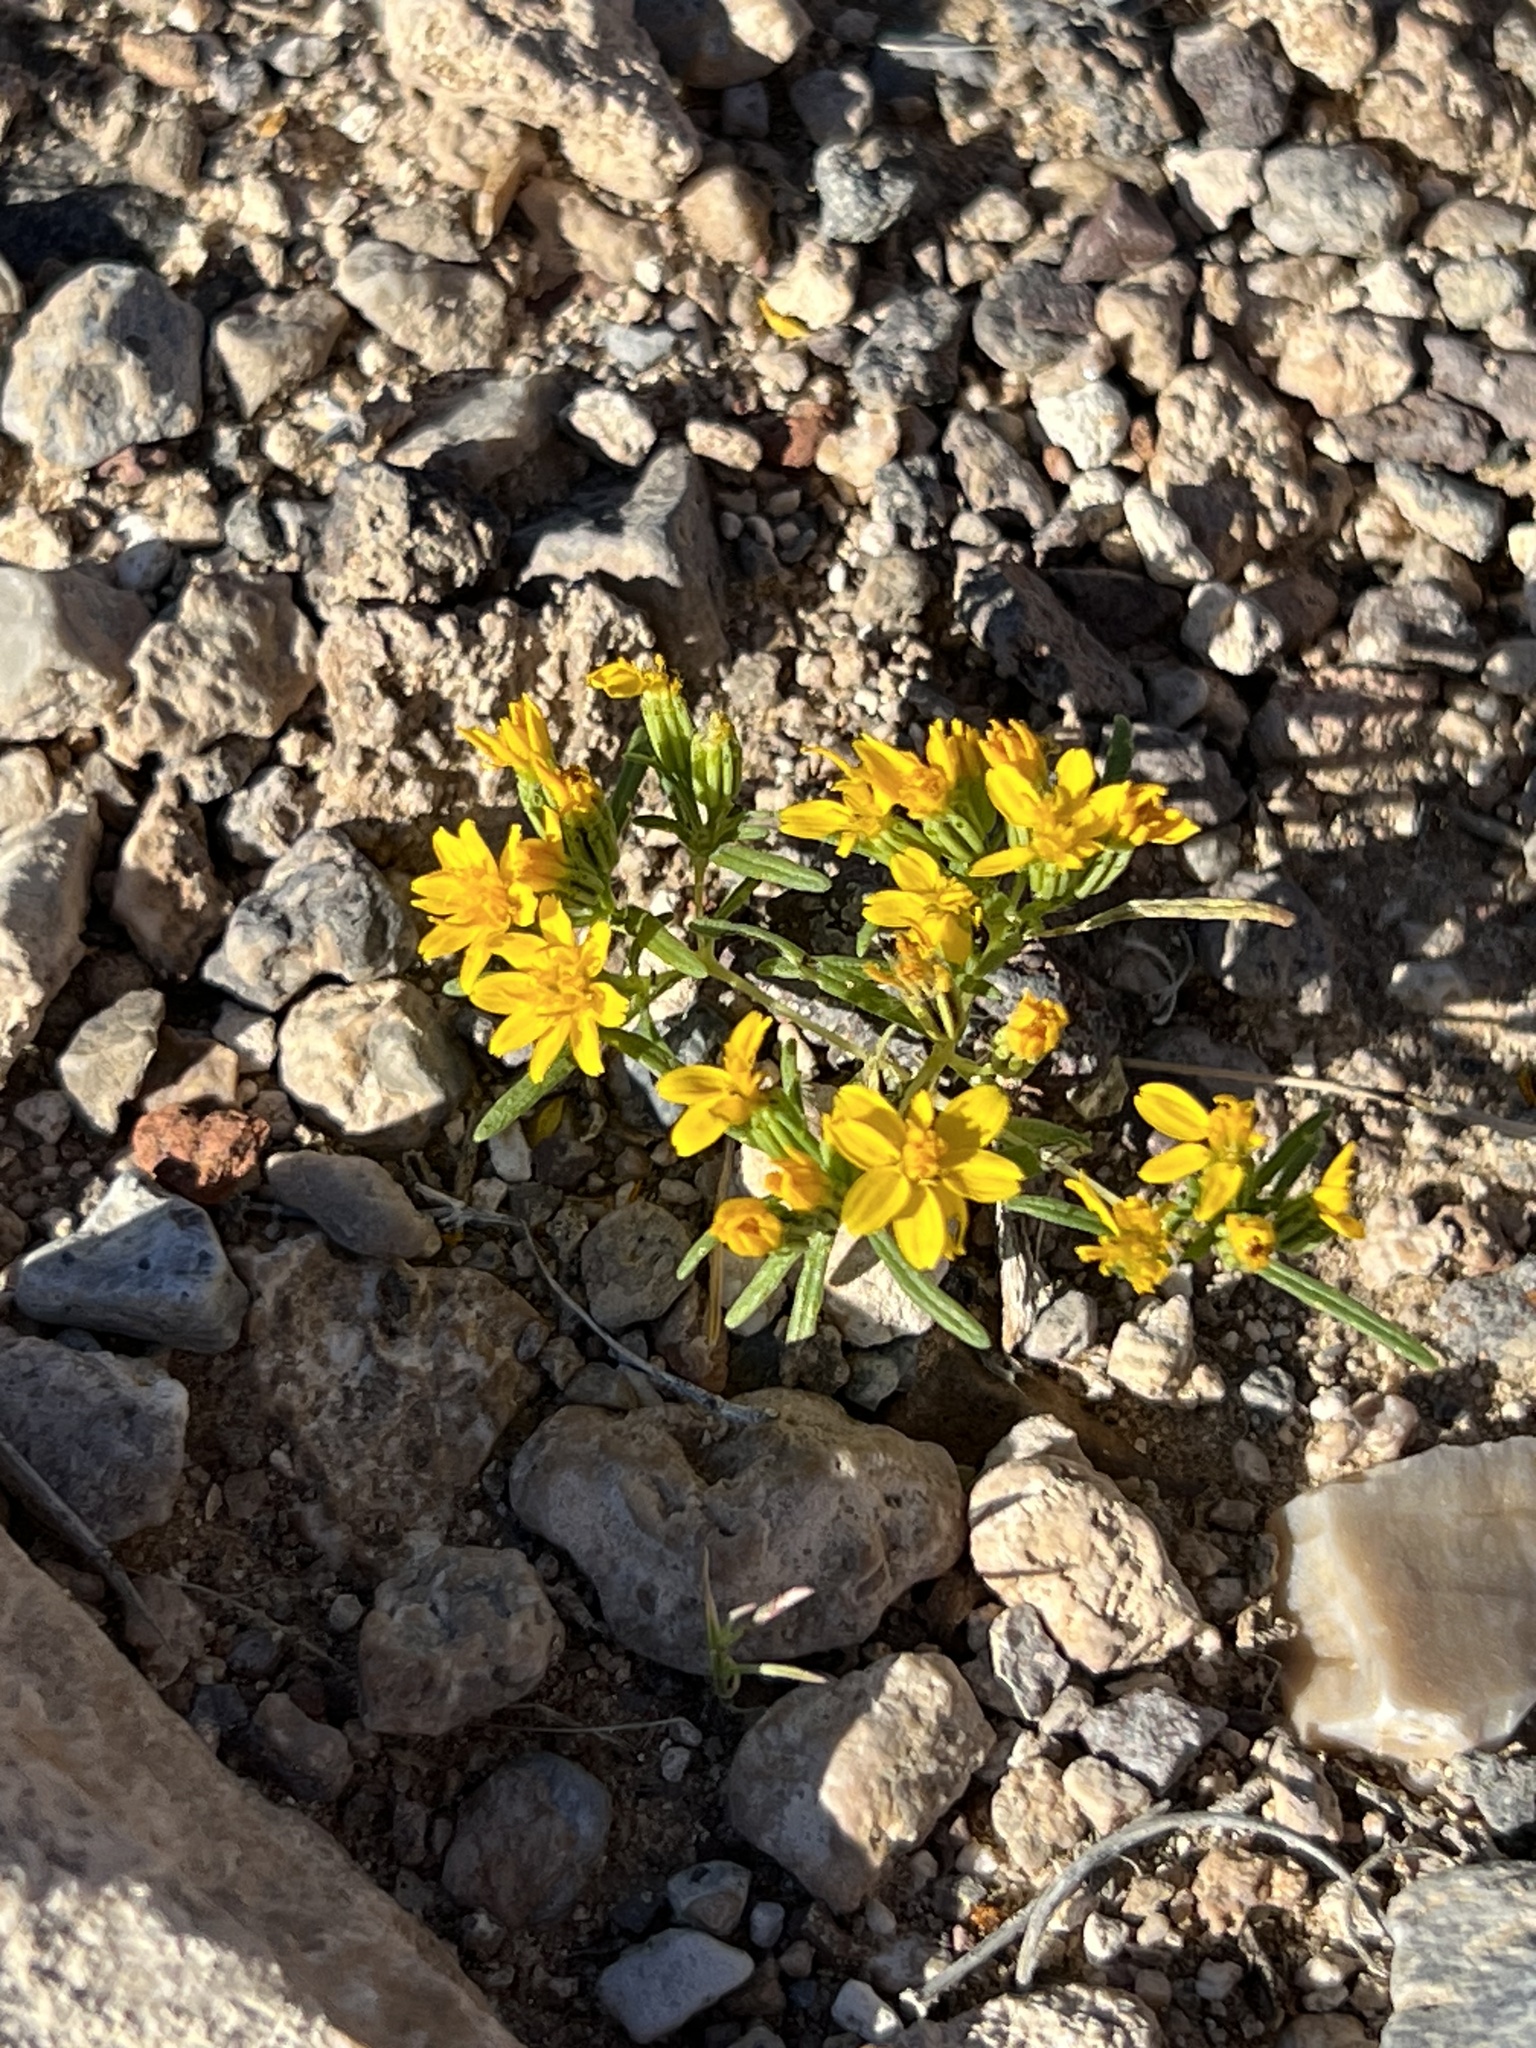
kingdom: Plantae
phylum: Tracheophyta
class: Magnoliopsida
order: Asterales
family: Asteraceae
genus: Pectis
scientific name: Pectis papposa
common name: Many-bristle chinchweed
